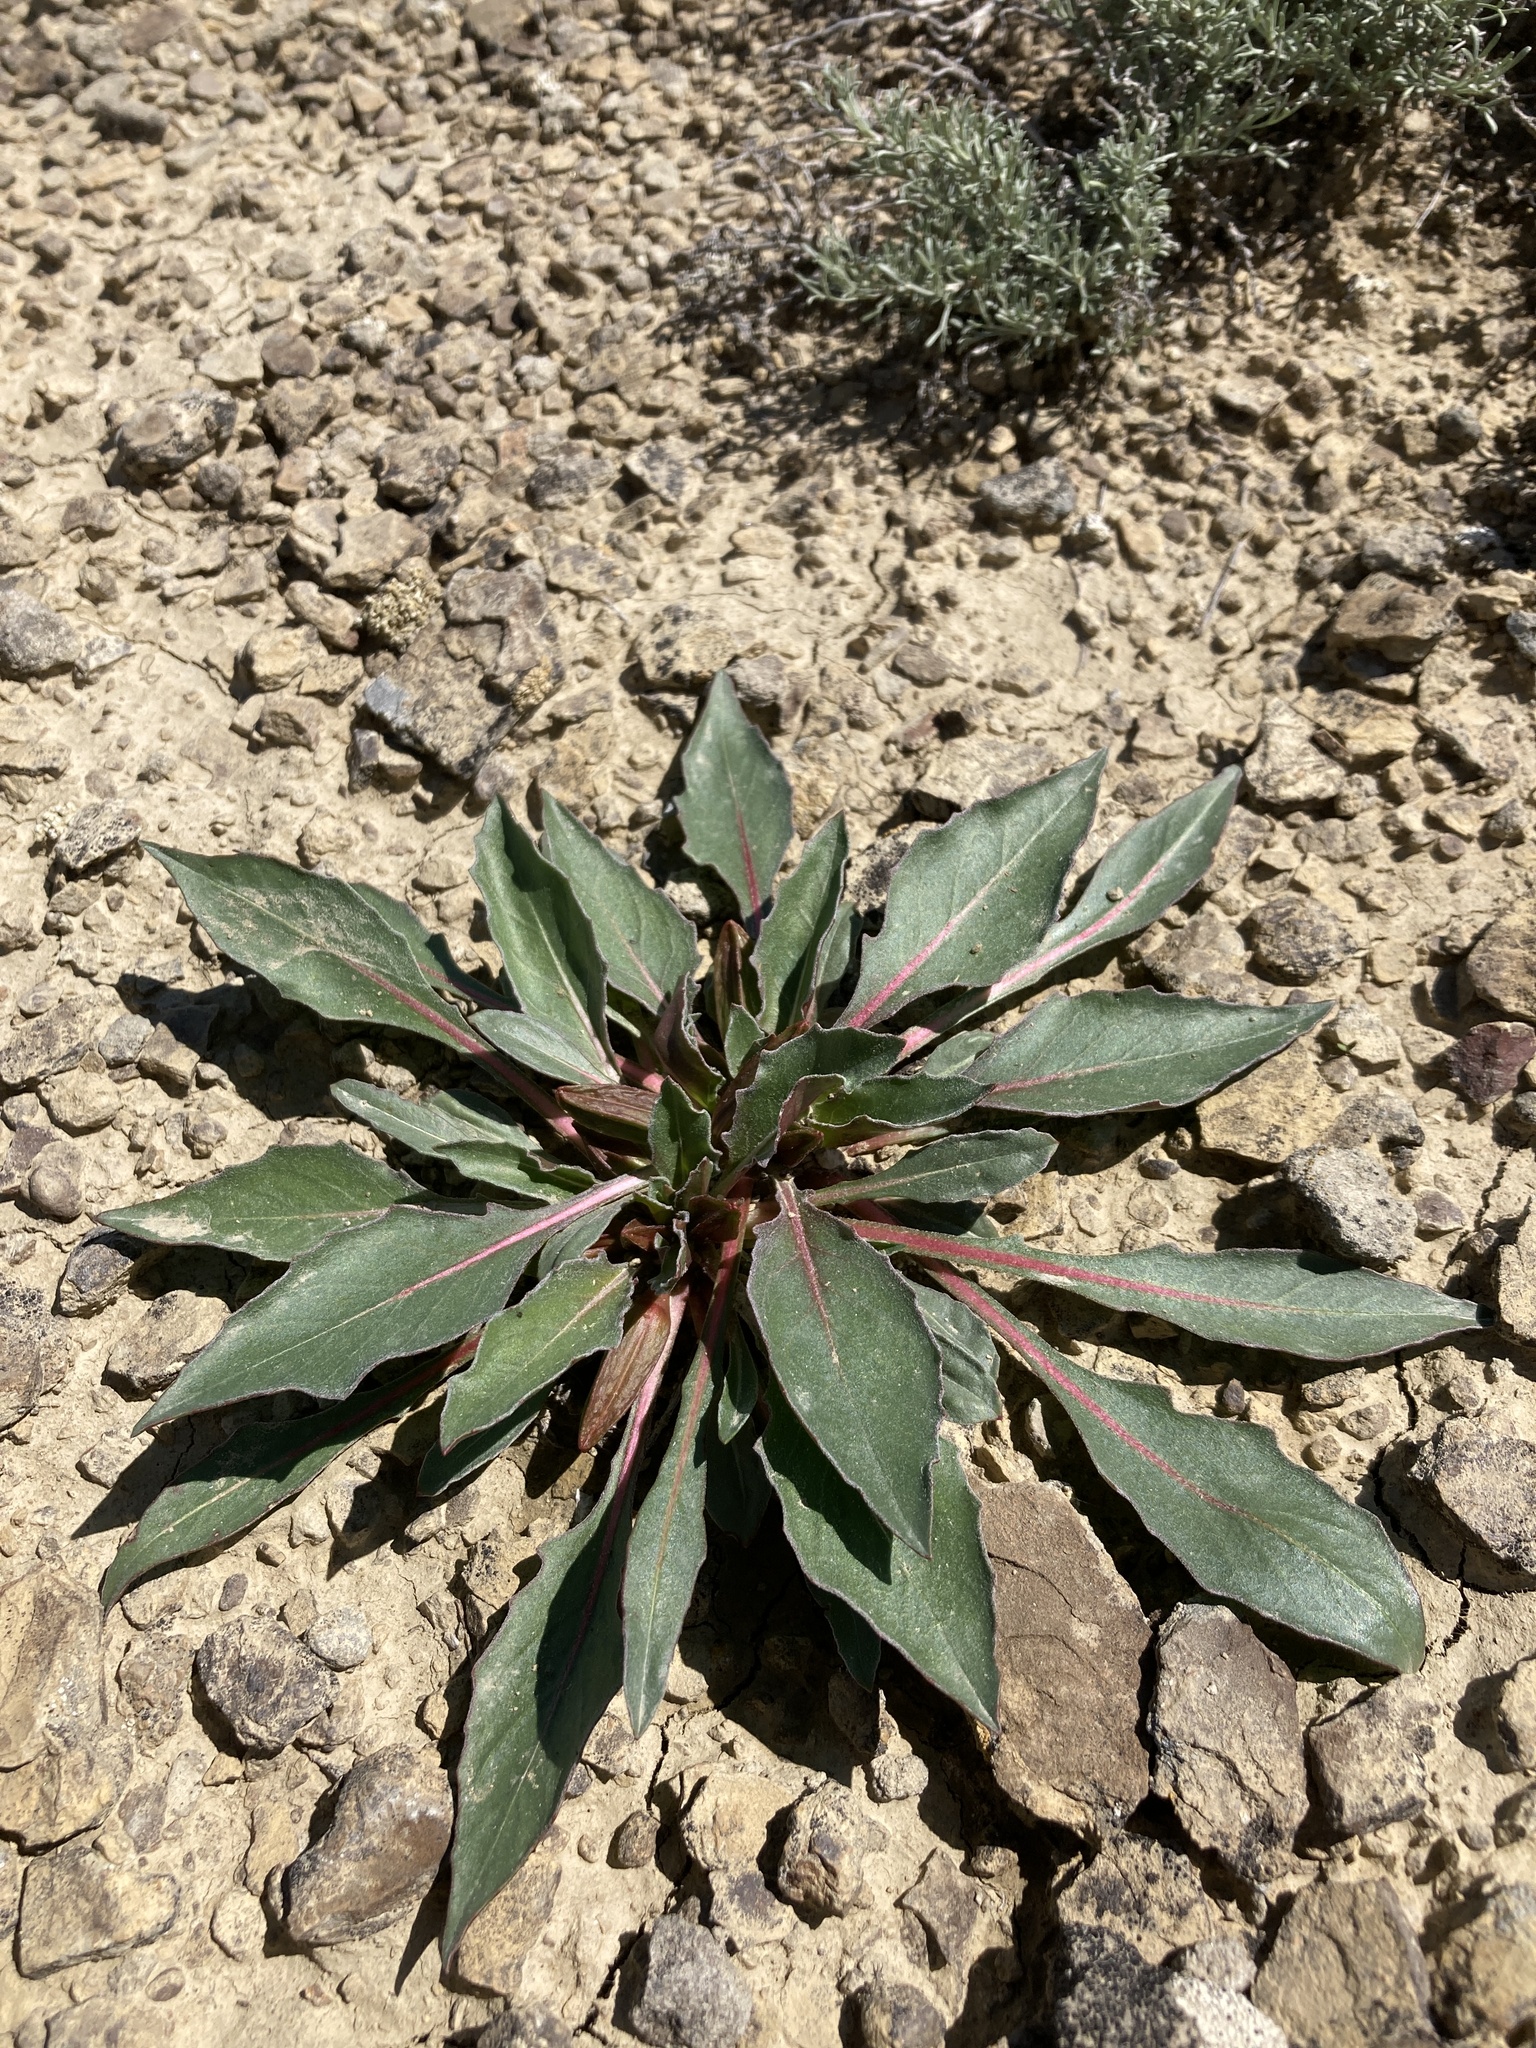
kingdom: Plantae
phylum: Tracheophyta
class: Magnoliopsida
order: Myrtales
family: Onagraceae
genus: Oenothera
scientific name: Oenothera cespitosa
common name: Tufted evening-primrose
